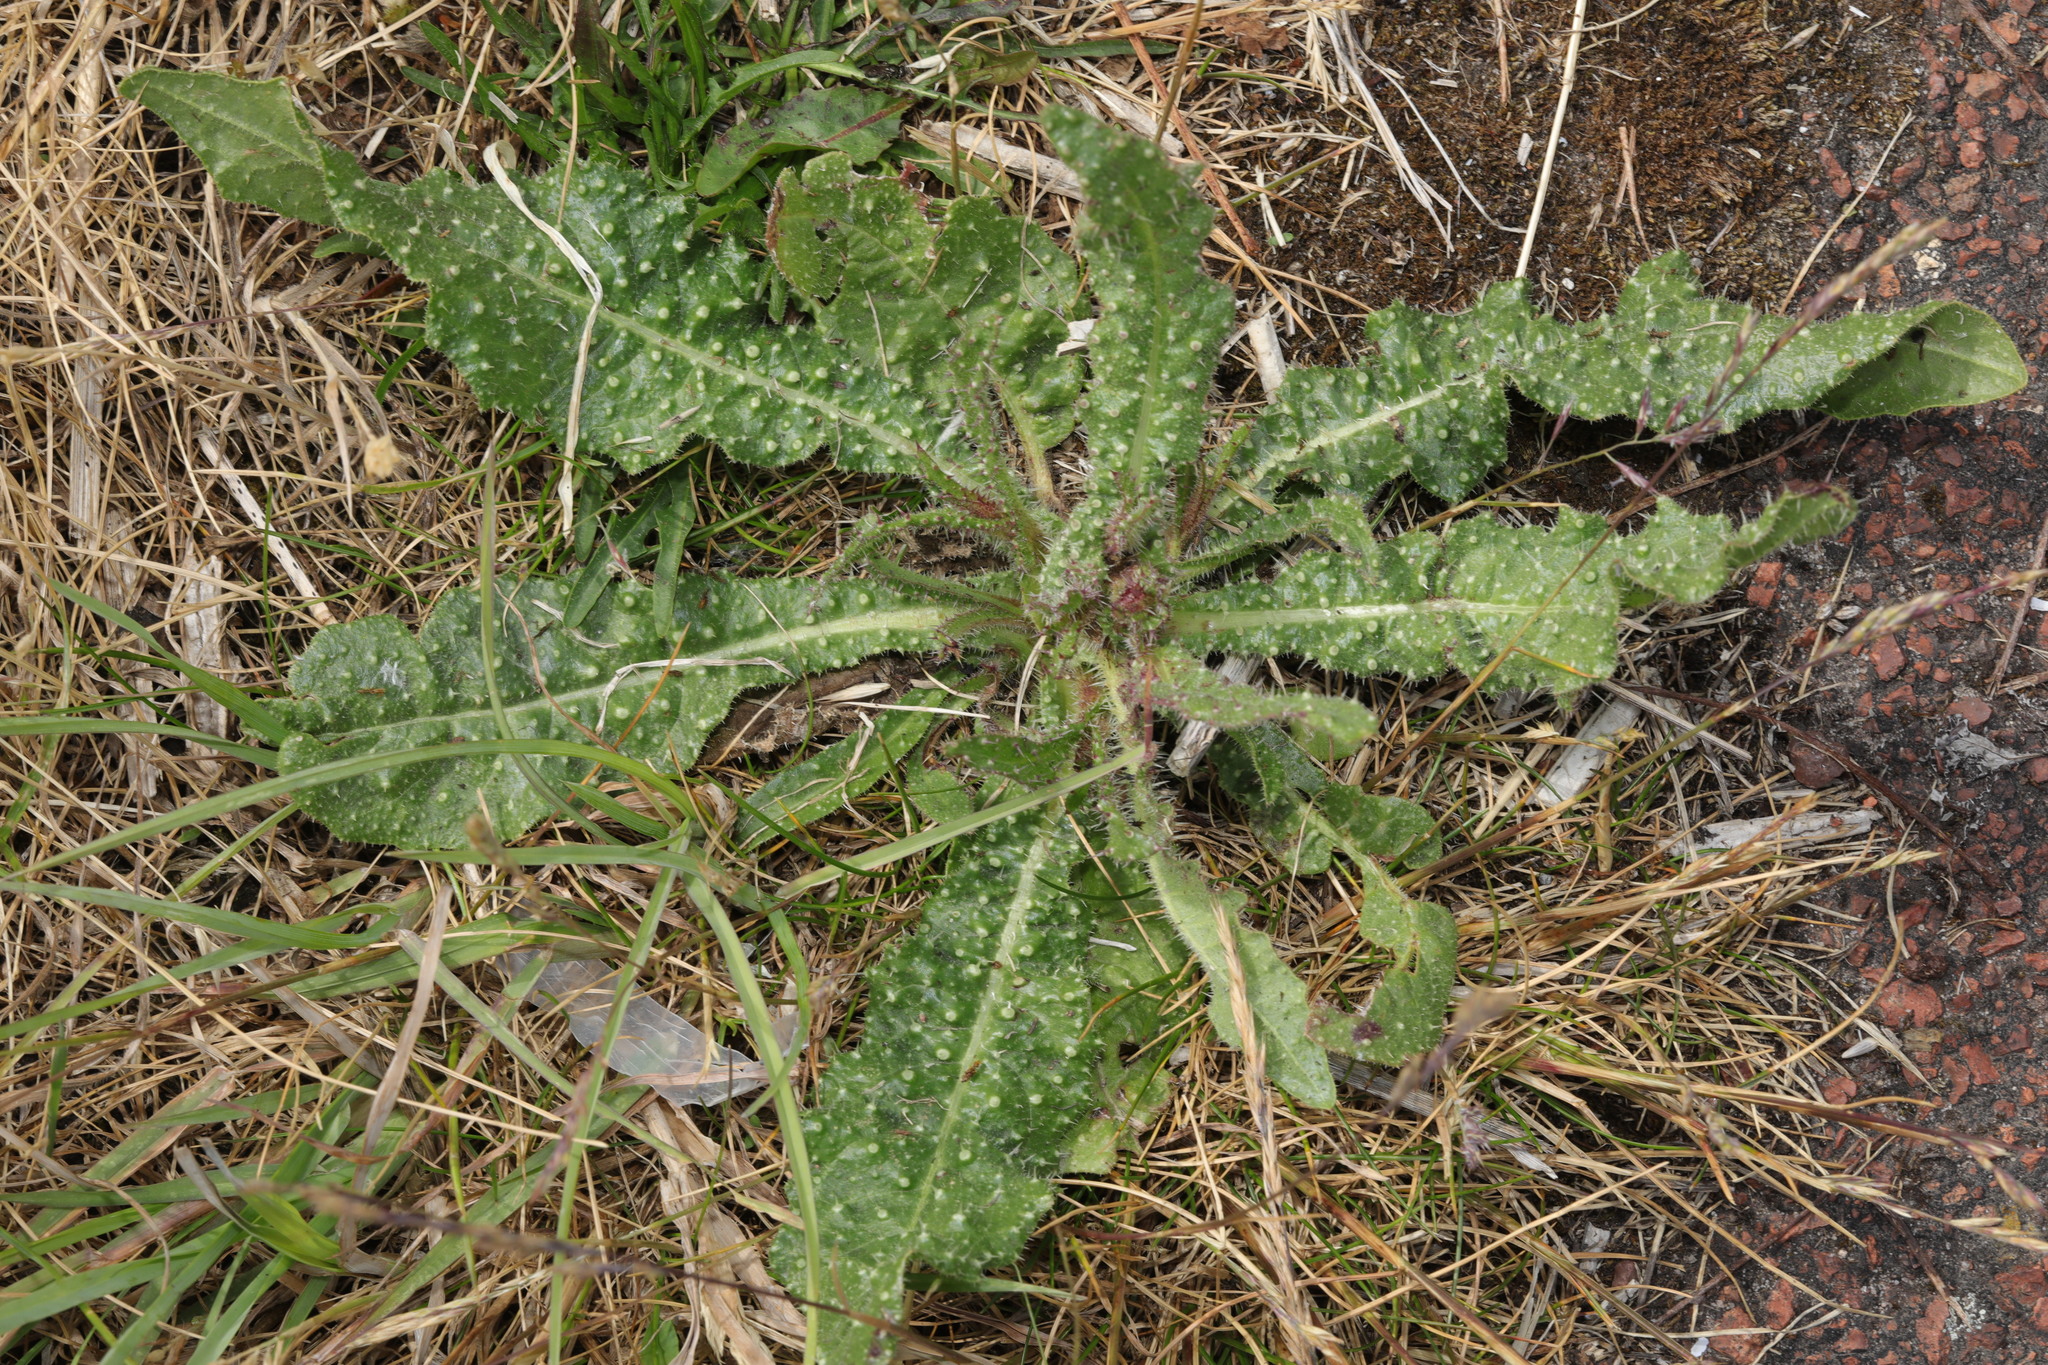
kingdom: Plantae
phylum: Tracheophyta
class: Magnoliopsida
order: Asterales
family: Asteraceae
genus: Helminthotheca
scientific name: Helminthotheca echioides
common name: Ox-tongue
